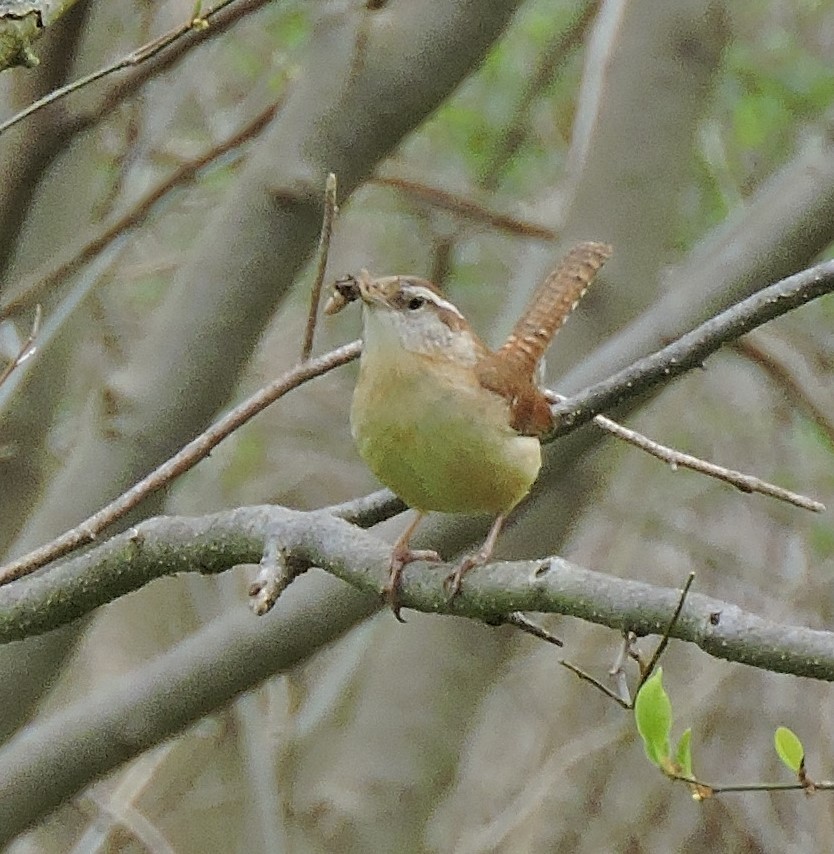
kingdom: Animalia
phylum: Chordata
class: Aves
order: Passeriformes
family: Troglodytidae
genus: Thryothorus
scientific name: Thryothorus ludovicianus
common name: Carolina wren
